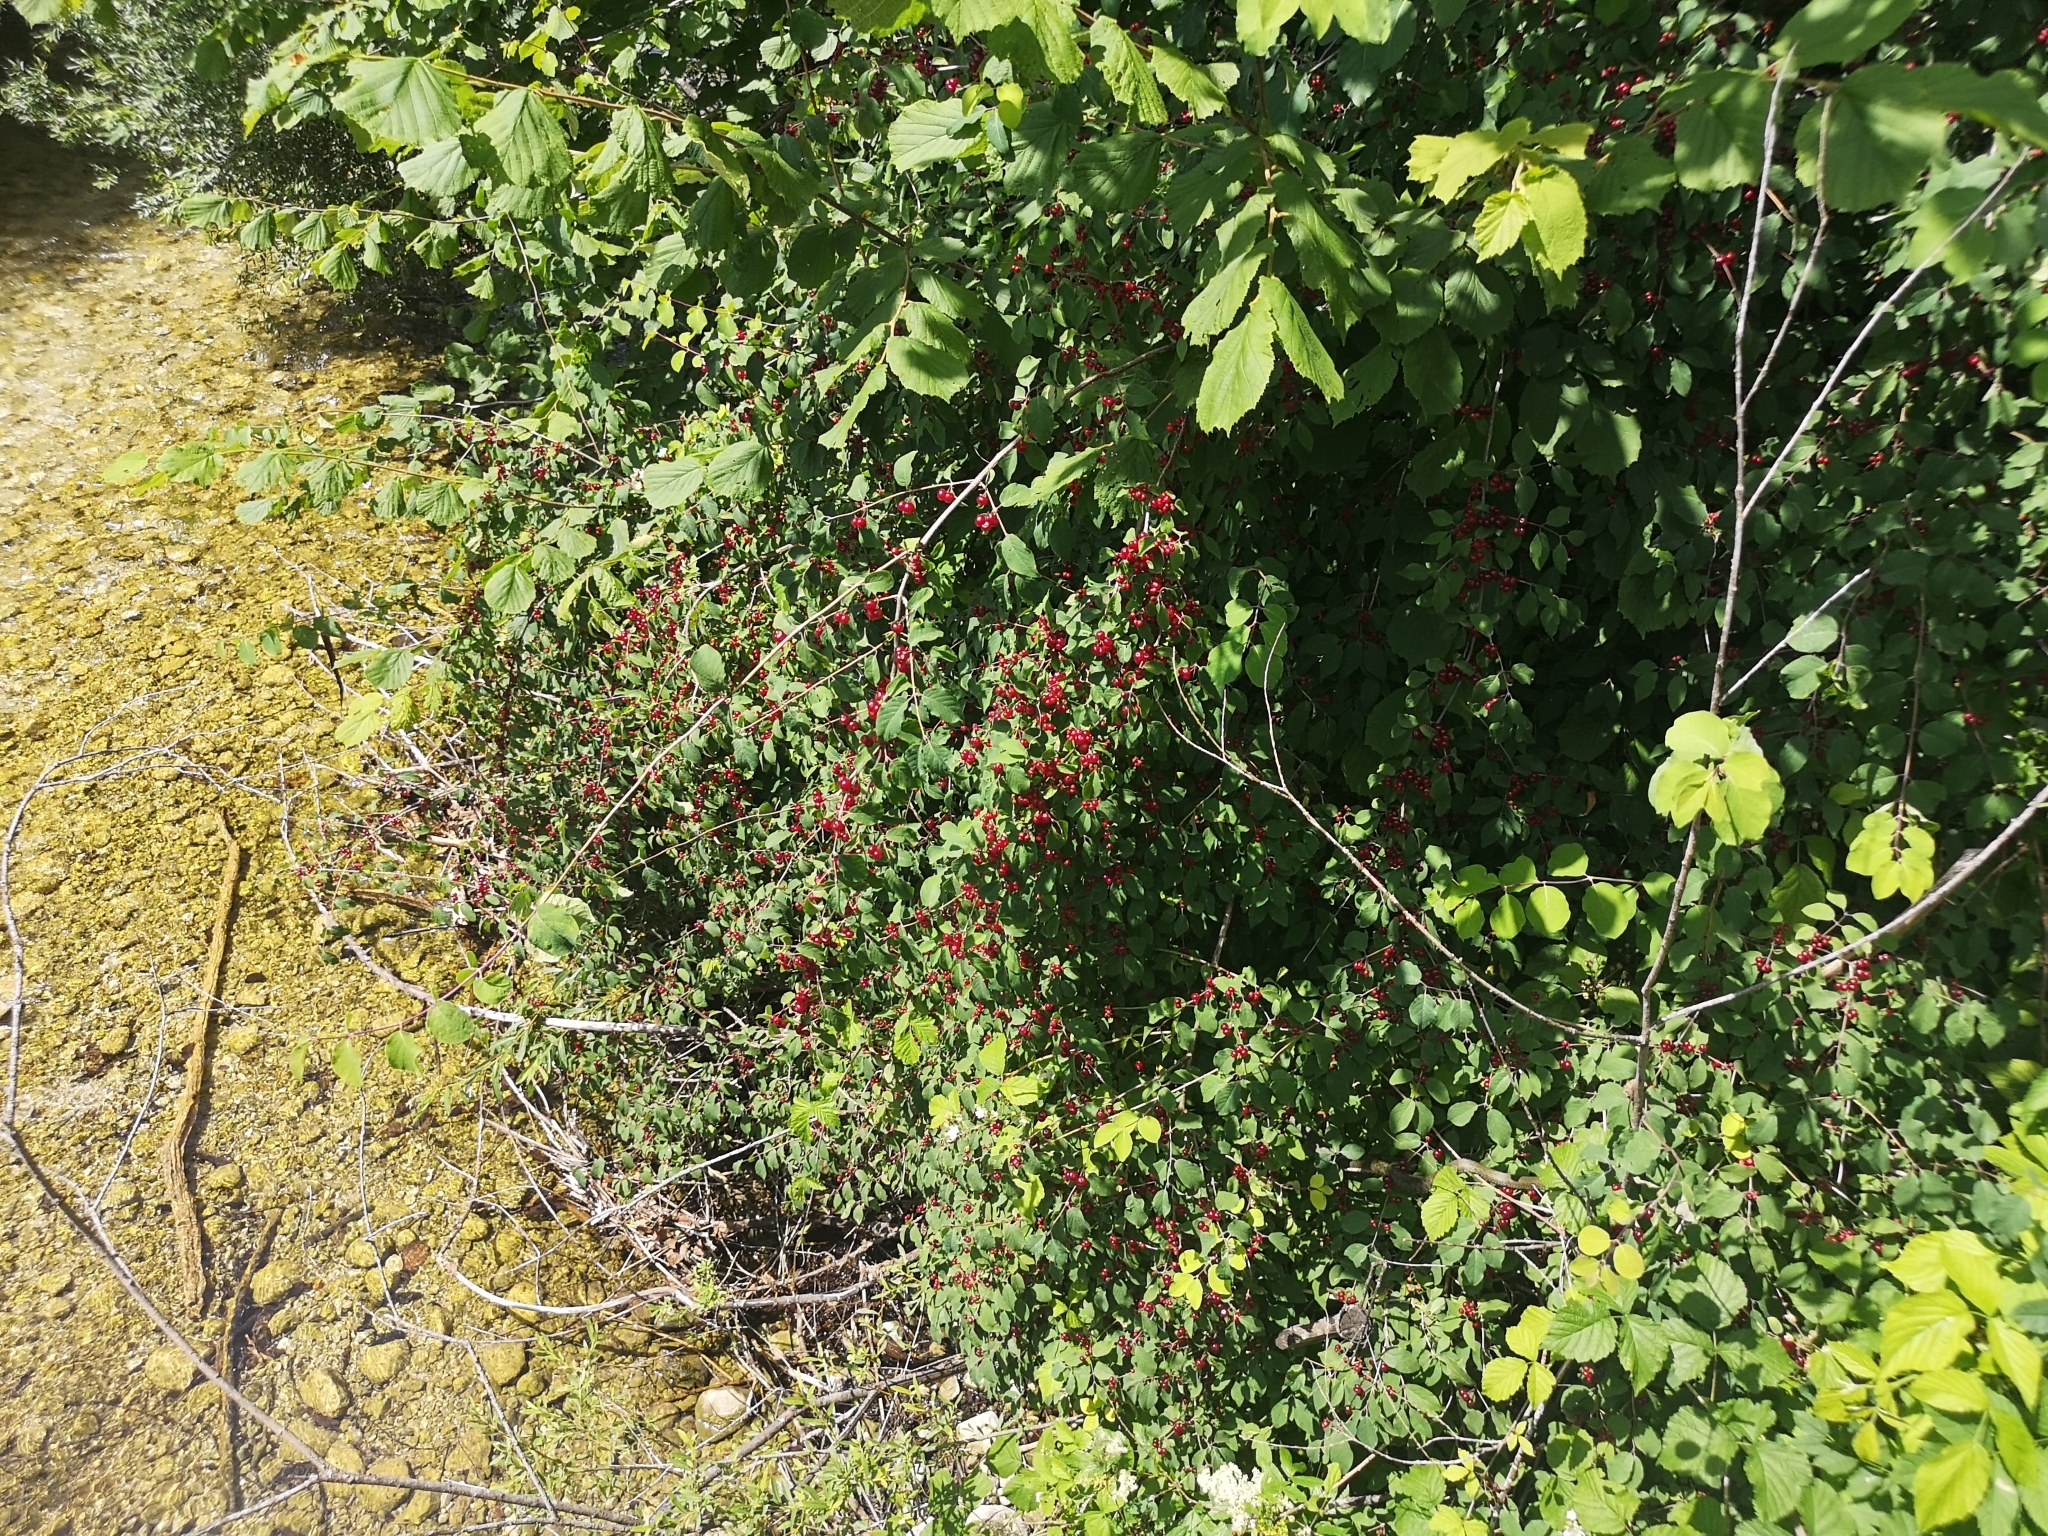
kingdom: Plantae
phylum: Tracheophyta
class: Magnoliopsida
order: Dipsacales
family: Caprifoliaceae
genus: Lonicera
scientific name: Lonicera xylosteum
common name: Fly honeysuckle
